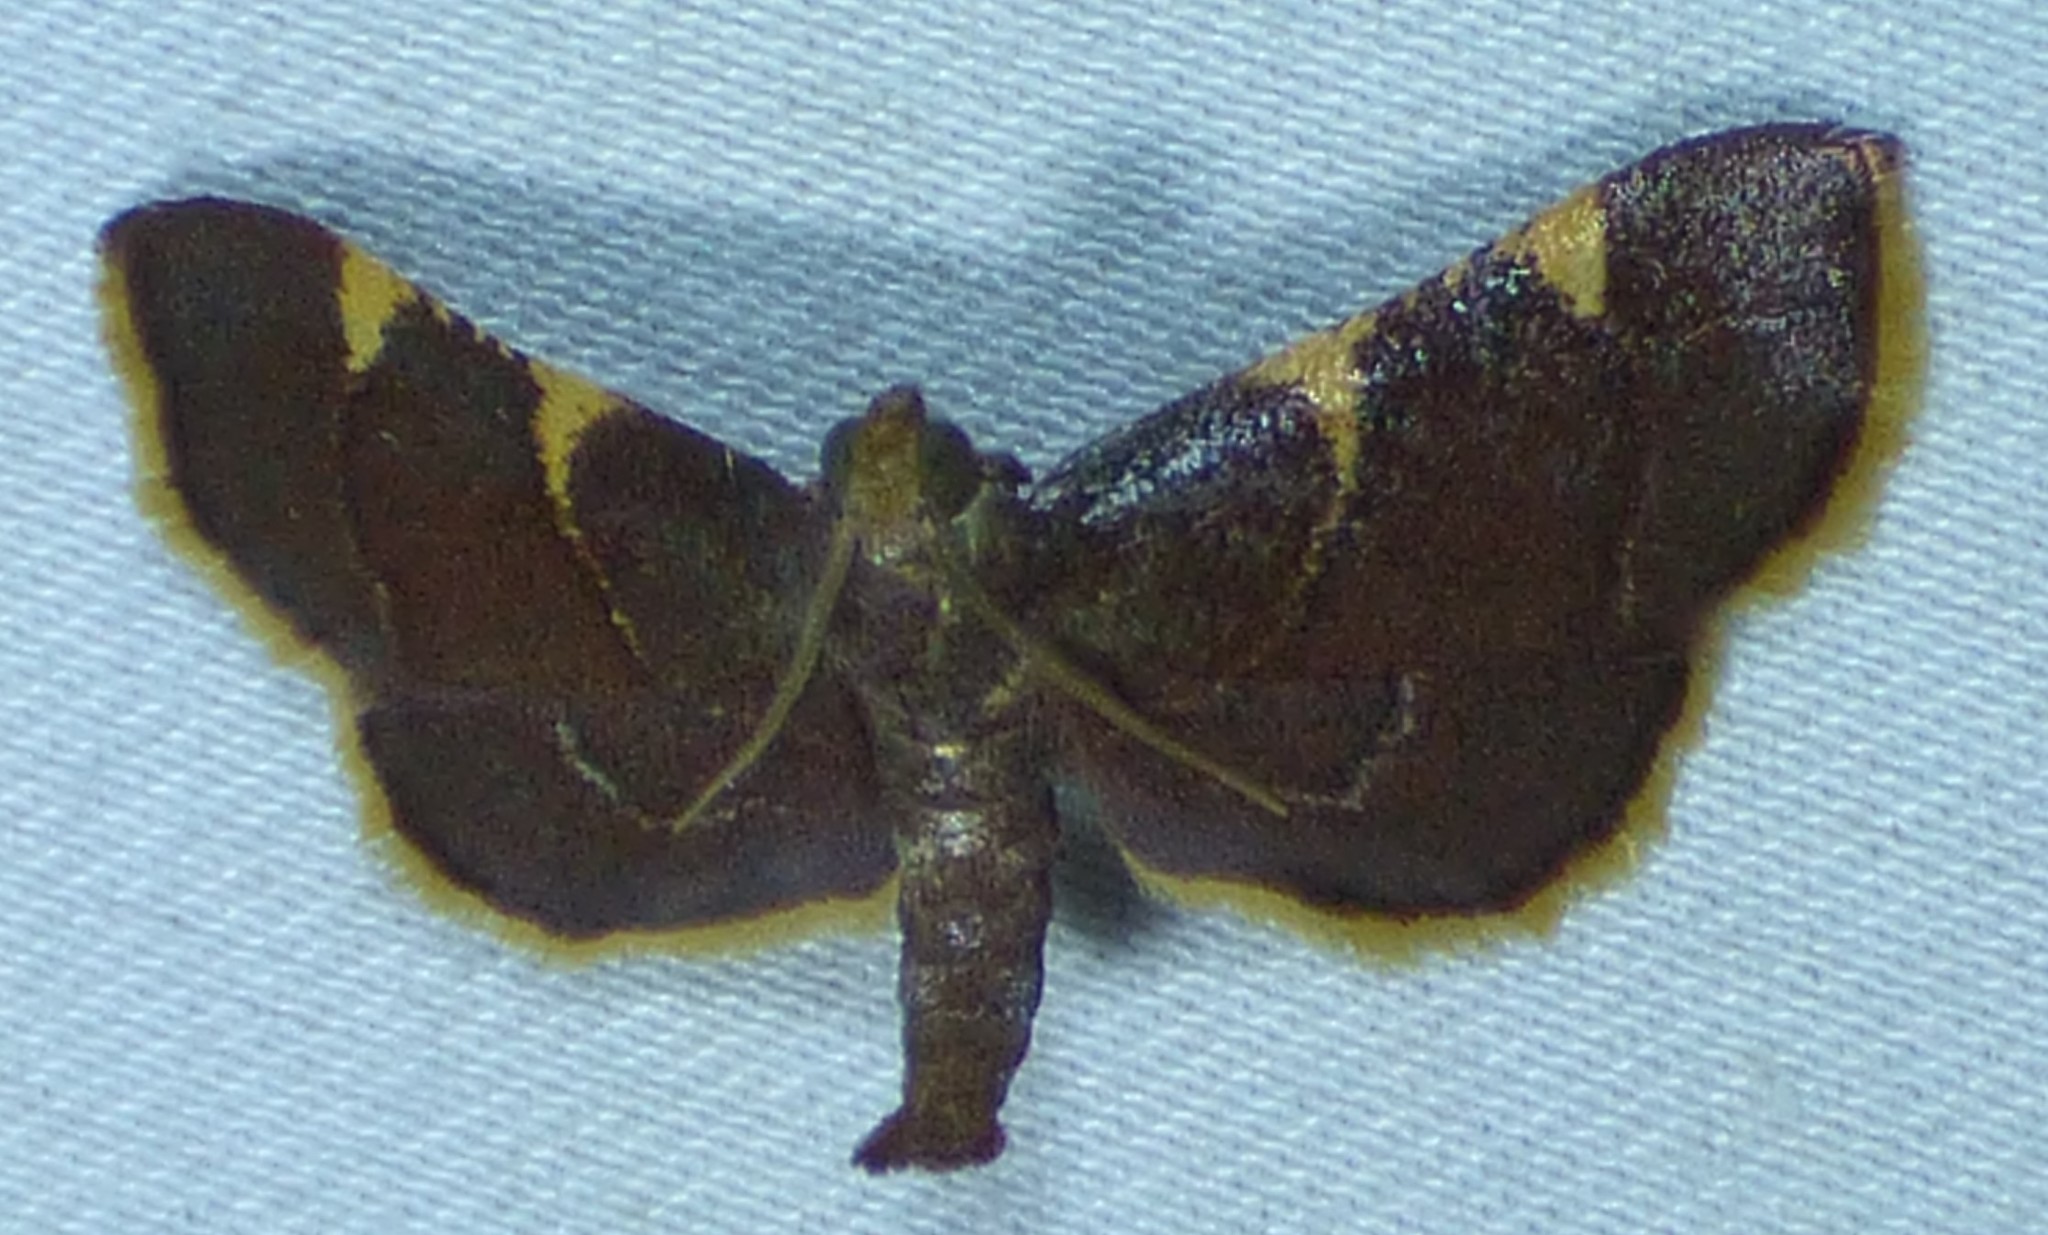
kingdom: Animalia
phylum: Arthropoda
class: Insecta
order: Lepidoptera
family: Pyralidae
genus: Hypsopygia
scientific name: Hypsopygia olinalis
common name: Yellow-fringed dolichomia moth
